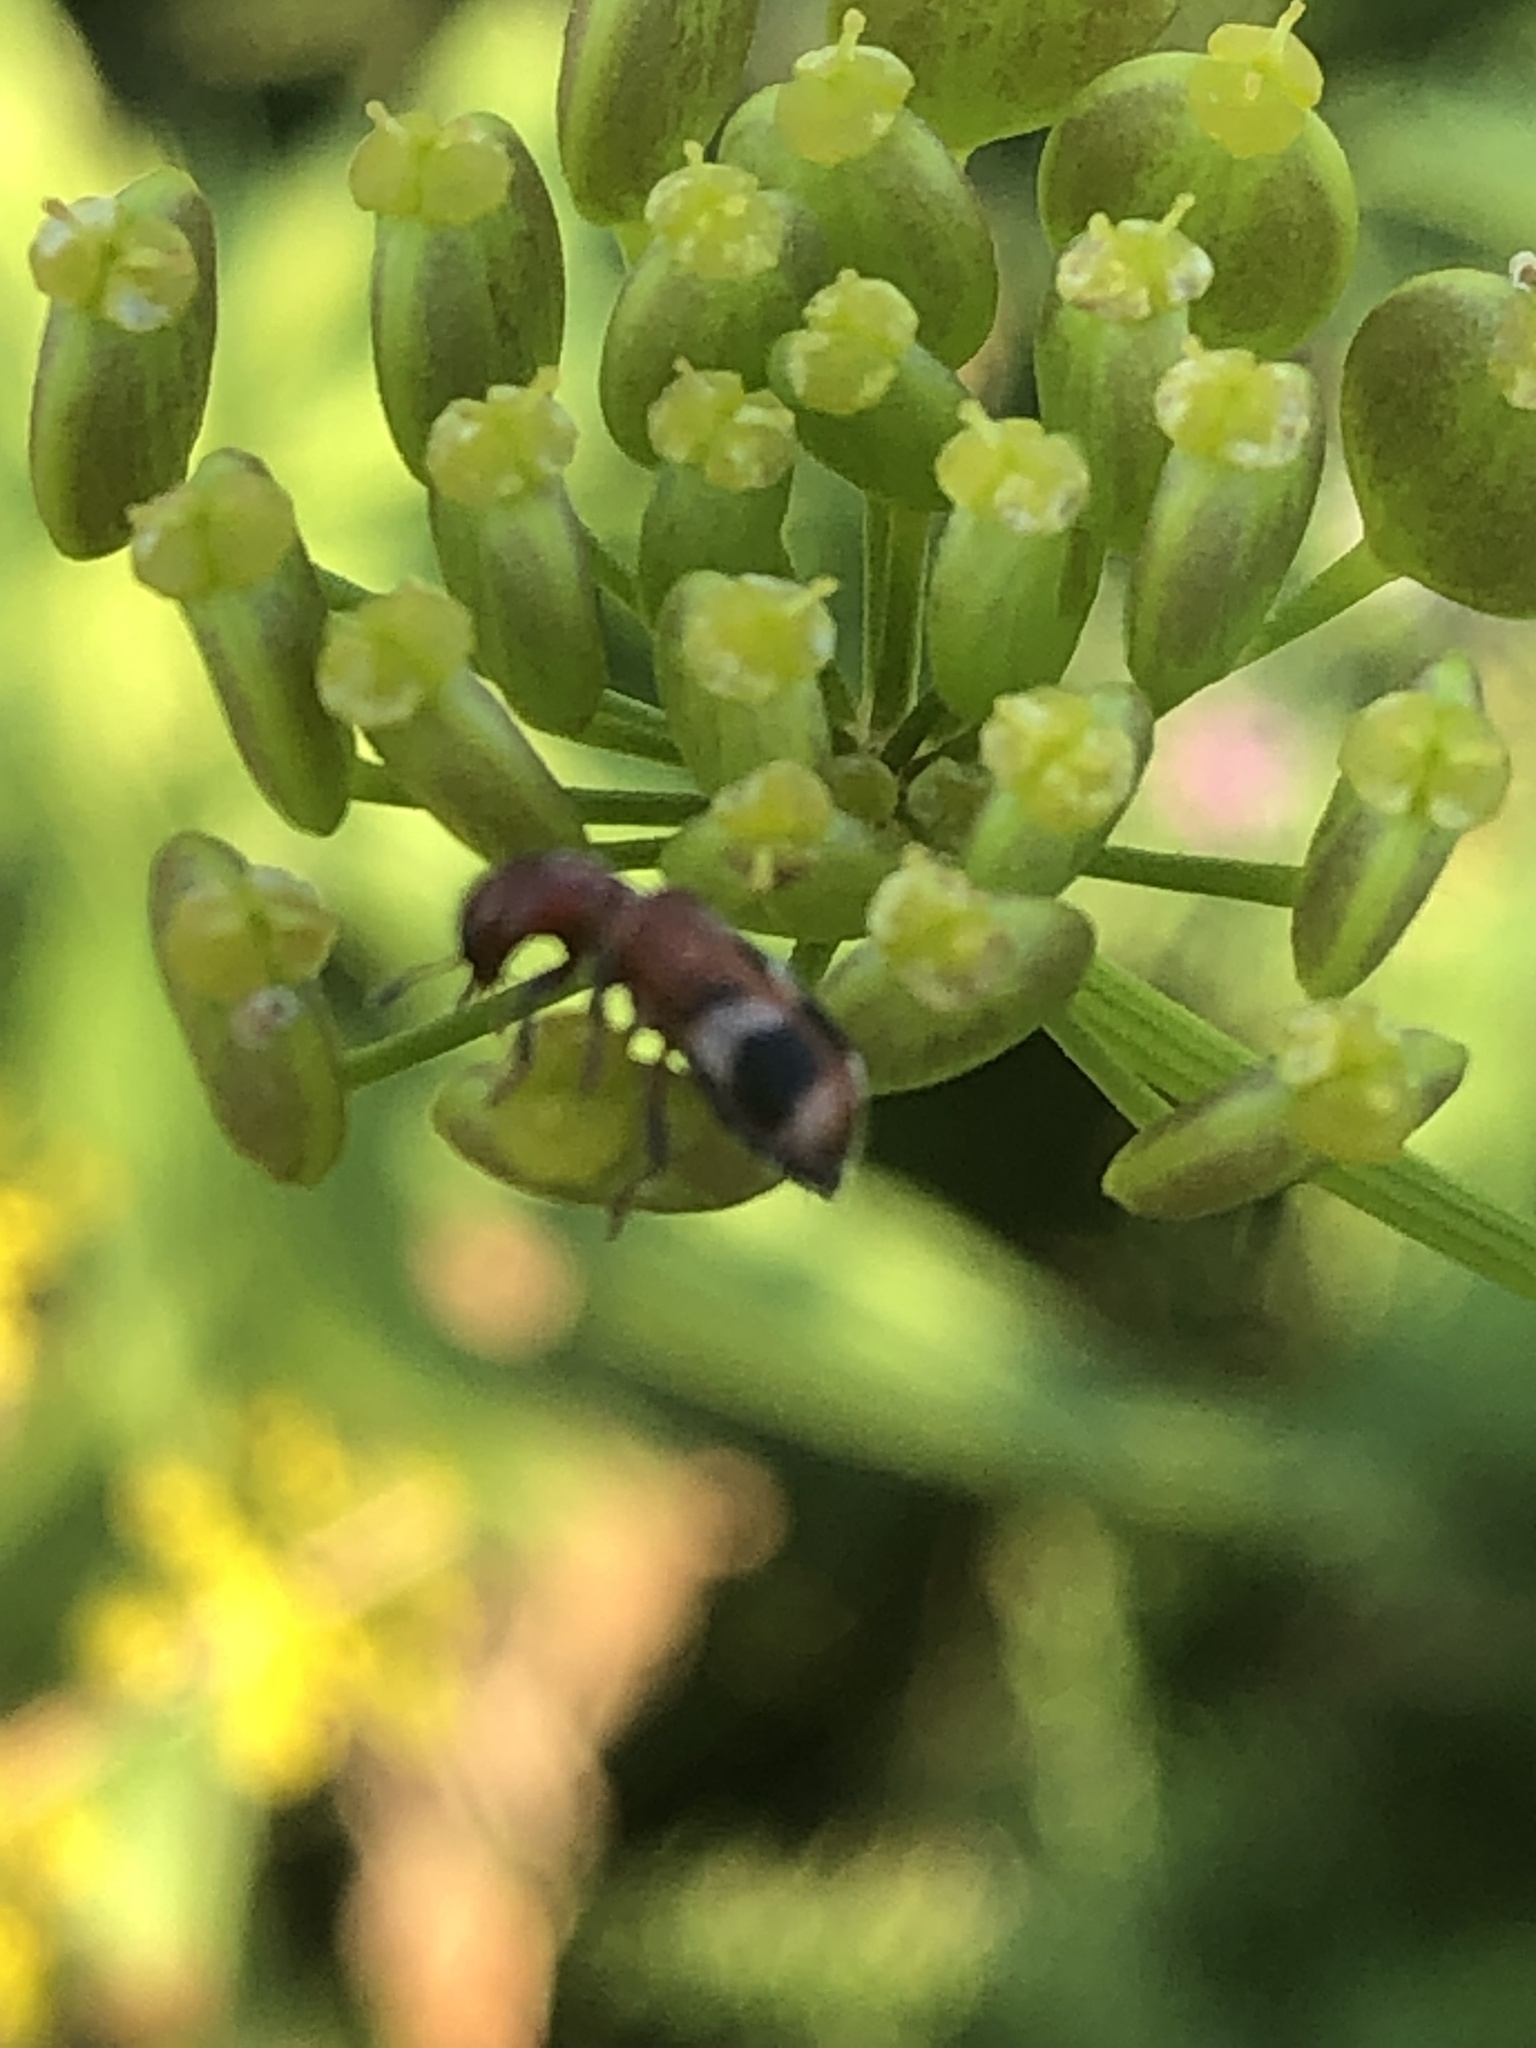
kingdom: Animalia
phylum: Arthropoda
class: Insecta
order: Coleoptera
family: Cleridae
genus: Enoclerus
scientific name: Enoclerus rosmarus
